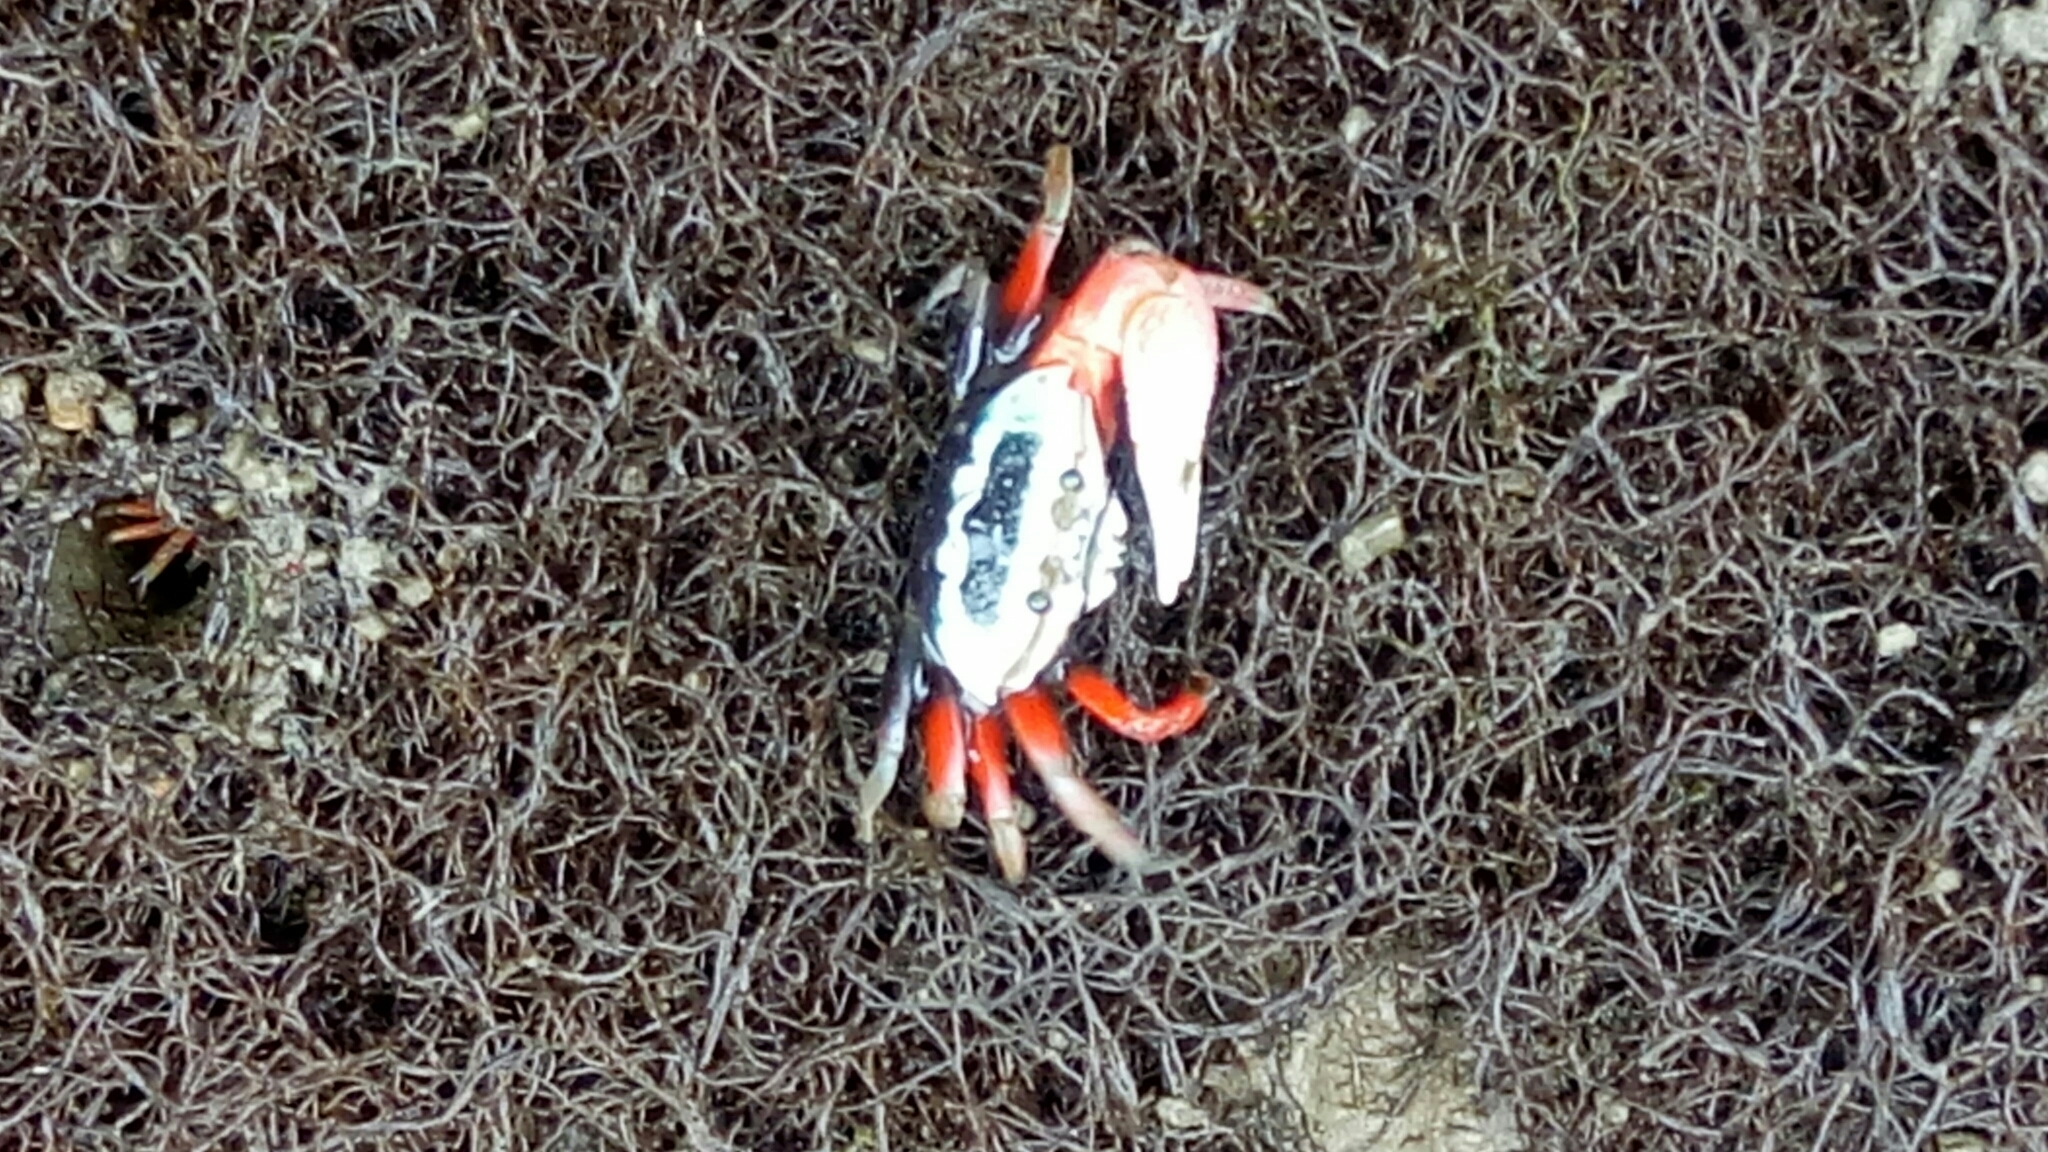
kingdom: Animalia
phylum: Arthropoda
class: Malacostraca
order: Decapoda
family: Ocypodidae
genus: Tubuca
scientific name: Tubuca arcuata
